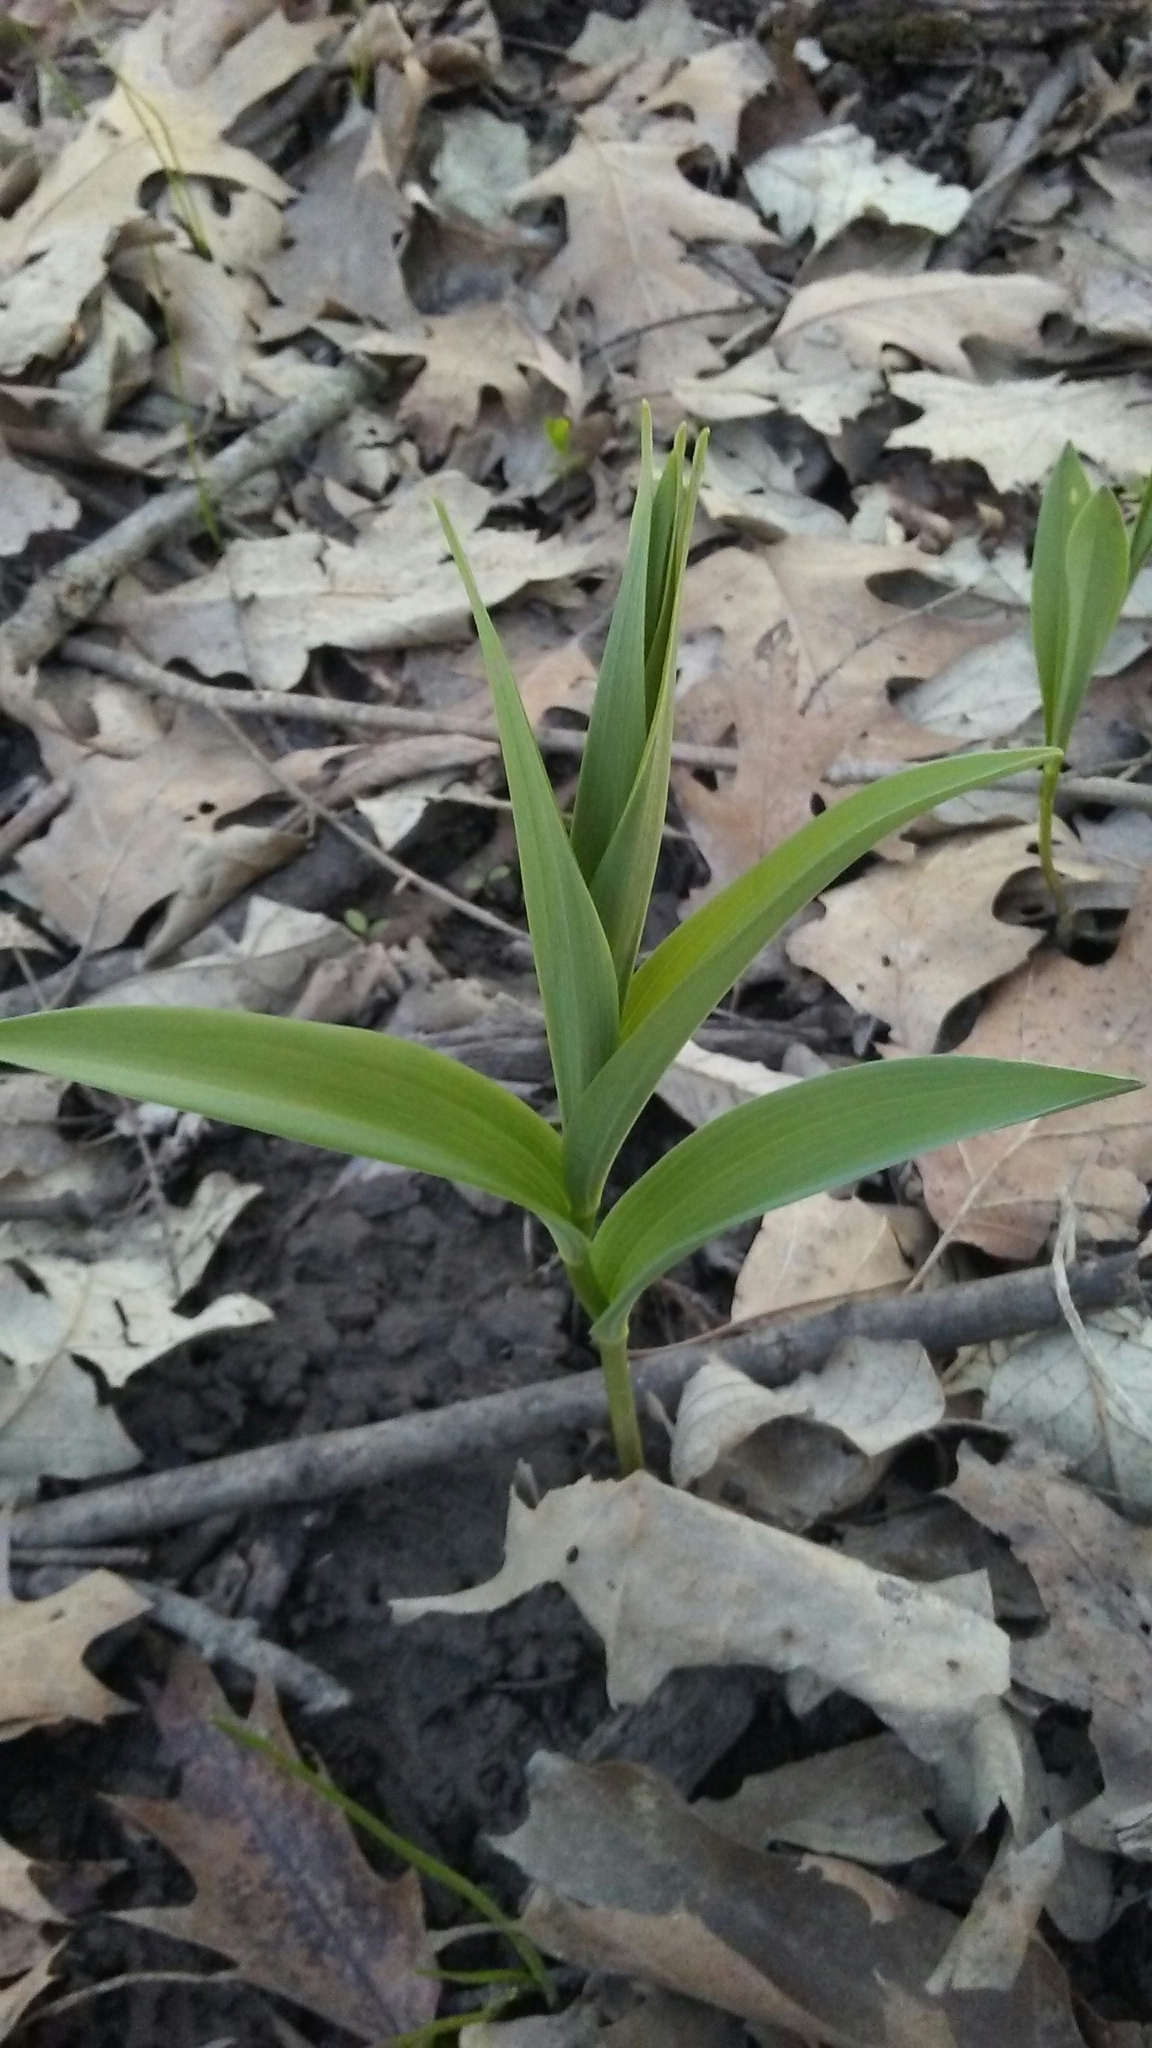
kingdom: Plantae
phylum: Tracheophyta
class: Liliopsida
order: Asparagales
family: Asparagaceae
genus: Maianthemum
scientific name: Maianthemum stellatum
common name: Little false solomon's seal
